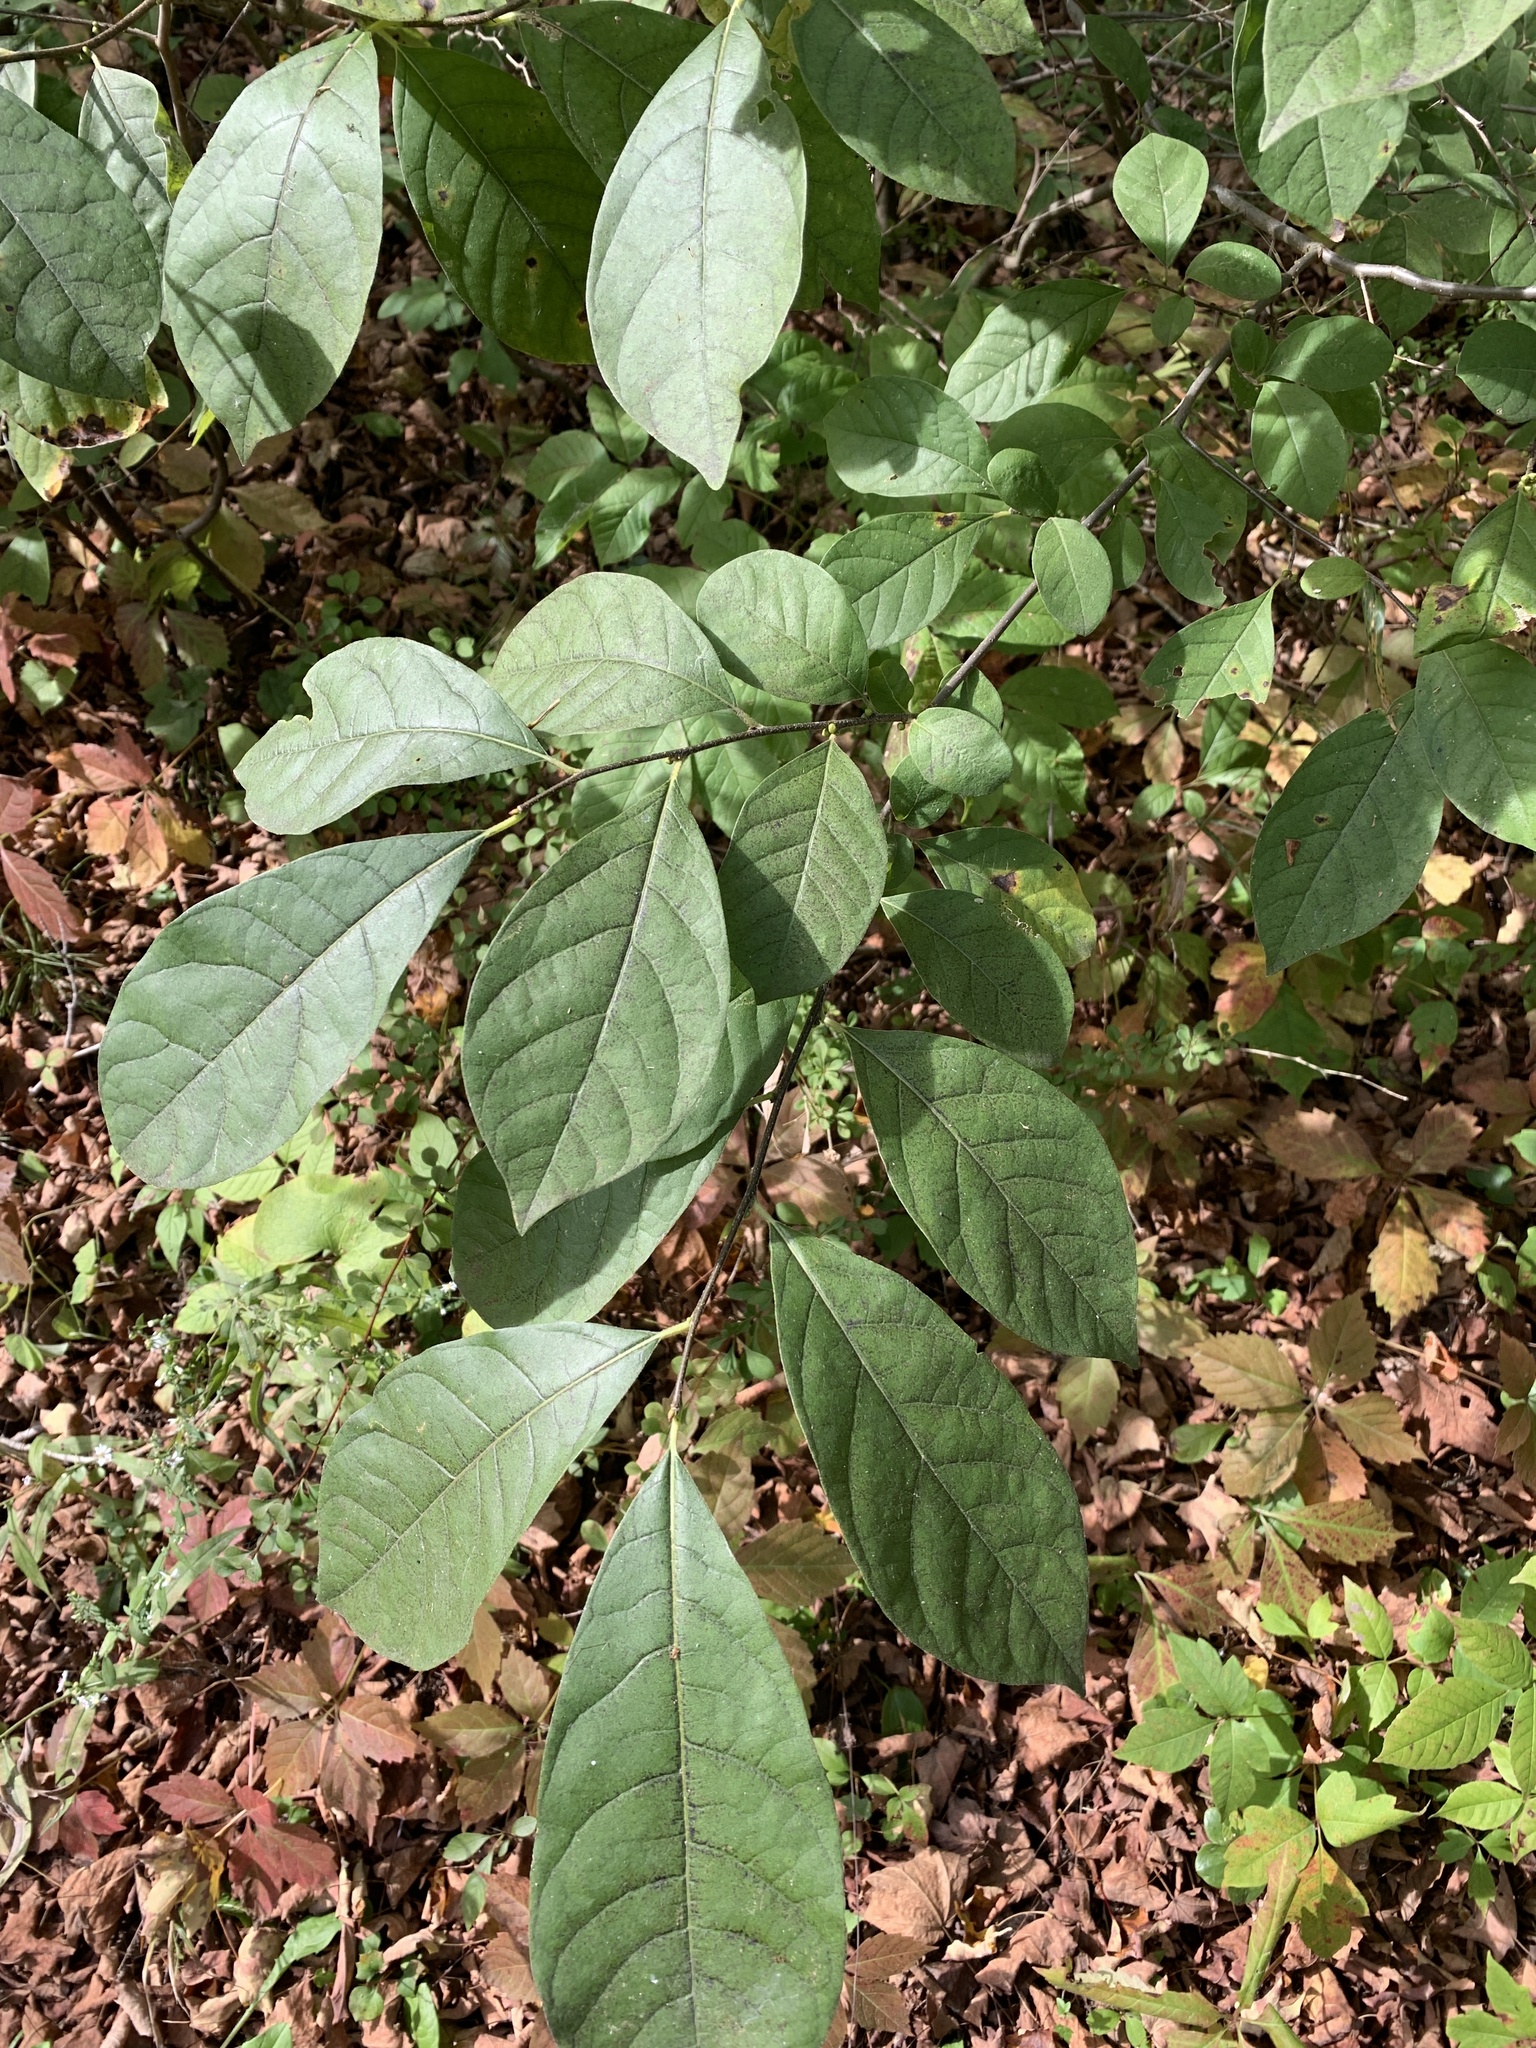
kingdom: Plantae
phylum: Tracheophyta
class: Magnoliopsida
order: Laurales
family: Lauraceae
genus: Lindera
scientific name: Lindera benzoin
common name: Spicebush
